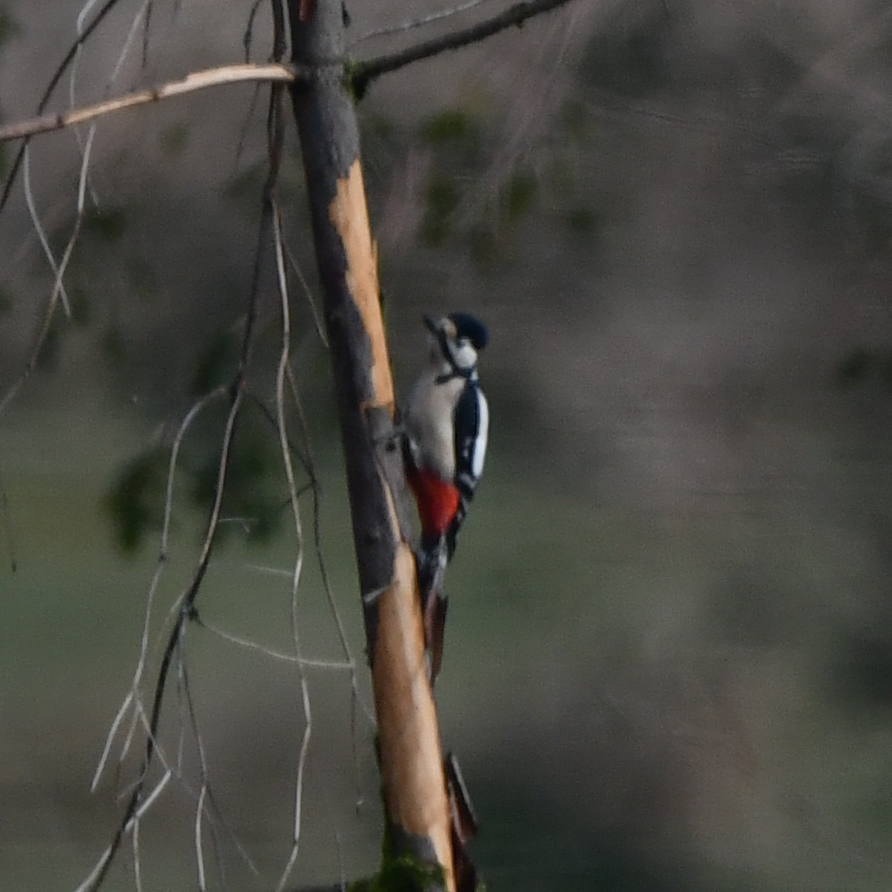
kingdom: Animalia
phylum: Chordata
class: Aves
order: Piciformes
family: Picidae
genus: Dendrocopos
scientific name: Dendrocopos major
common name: Great spotted woodpecker
